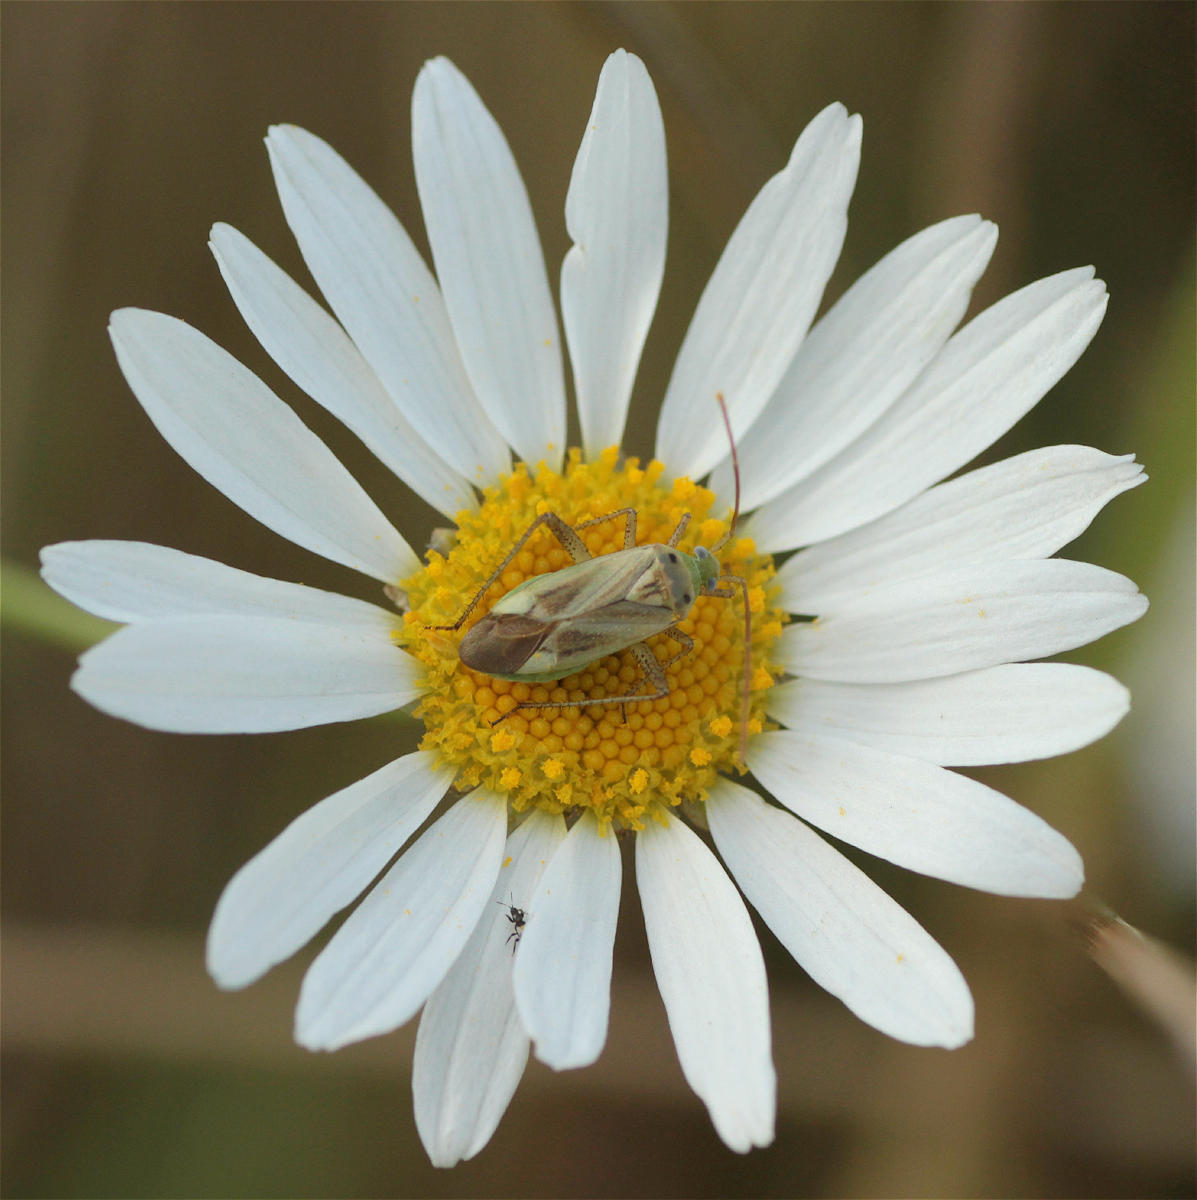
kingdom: Animalia
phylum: Arthropoda
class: Insecta
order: Hemiptera
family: Miridae
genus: Adelphocoris
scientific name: Adelphocoris lineolatus
